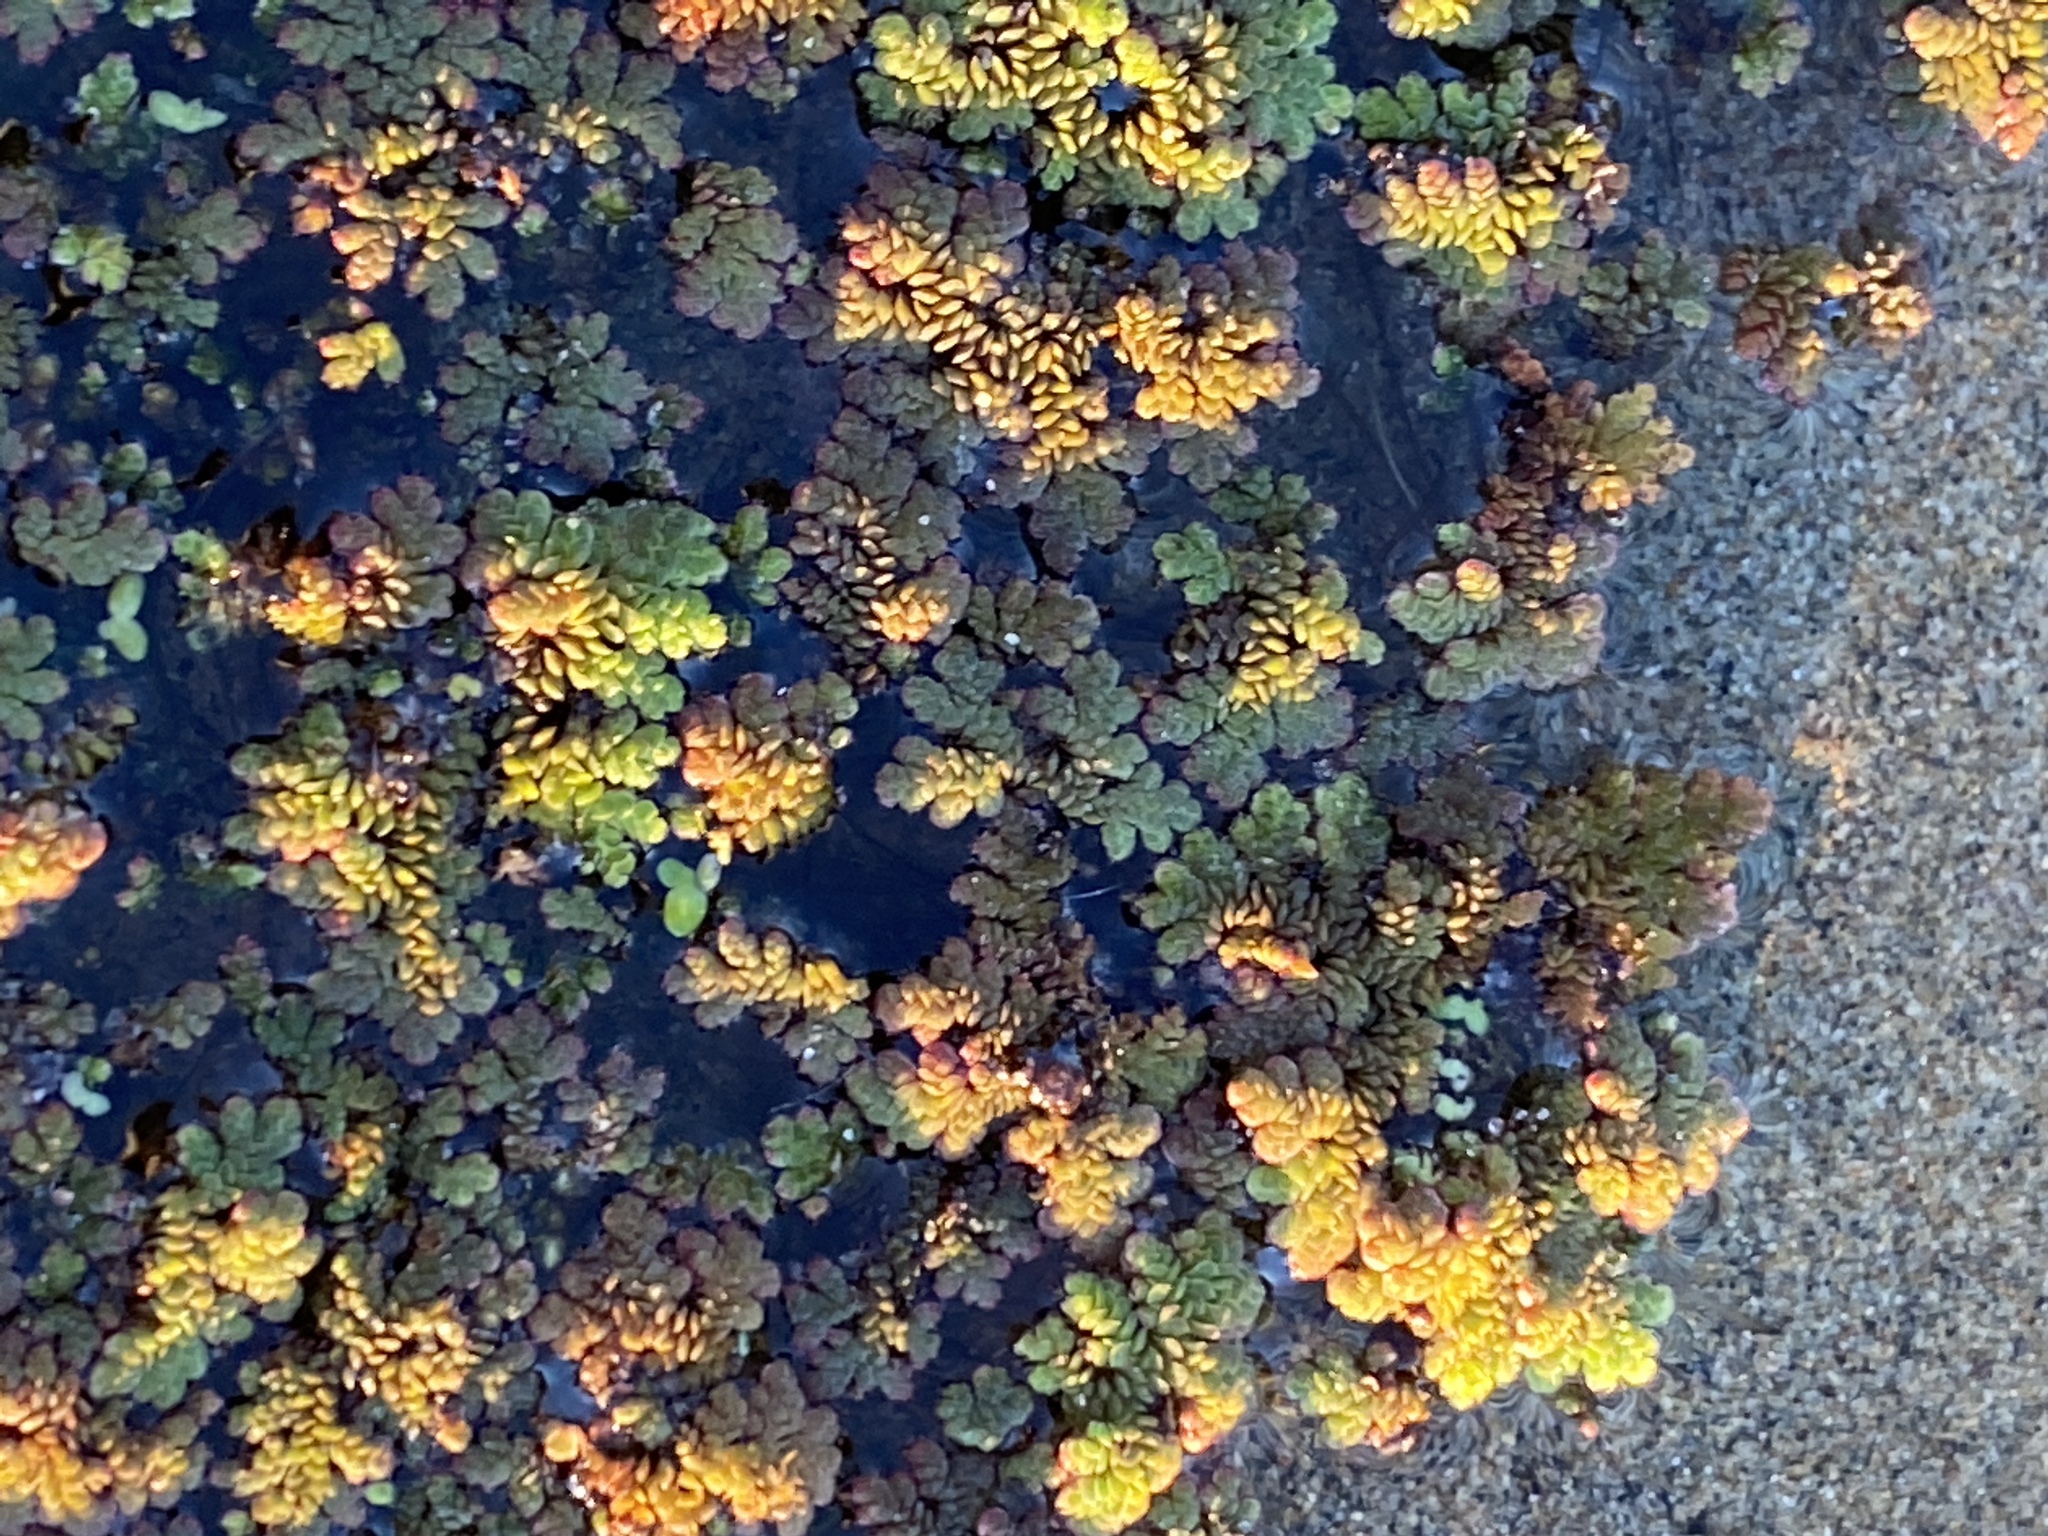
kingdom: Plantae
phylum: Tracheophyta
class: Polypodiopsida
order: Salviniales
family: Salviniaceae
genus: Azolla
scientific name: Azolla filiculoides
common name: Water fern
